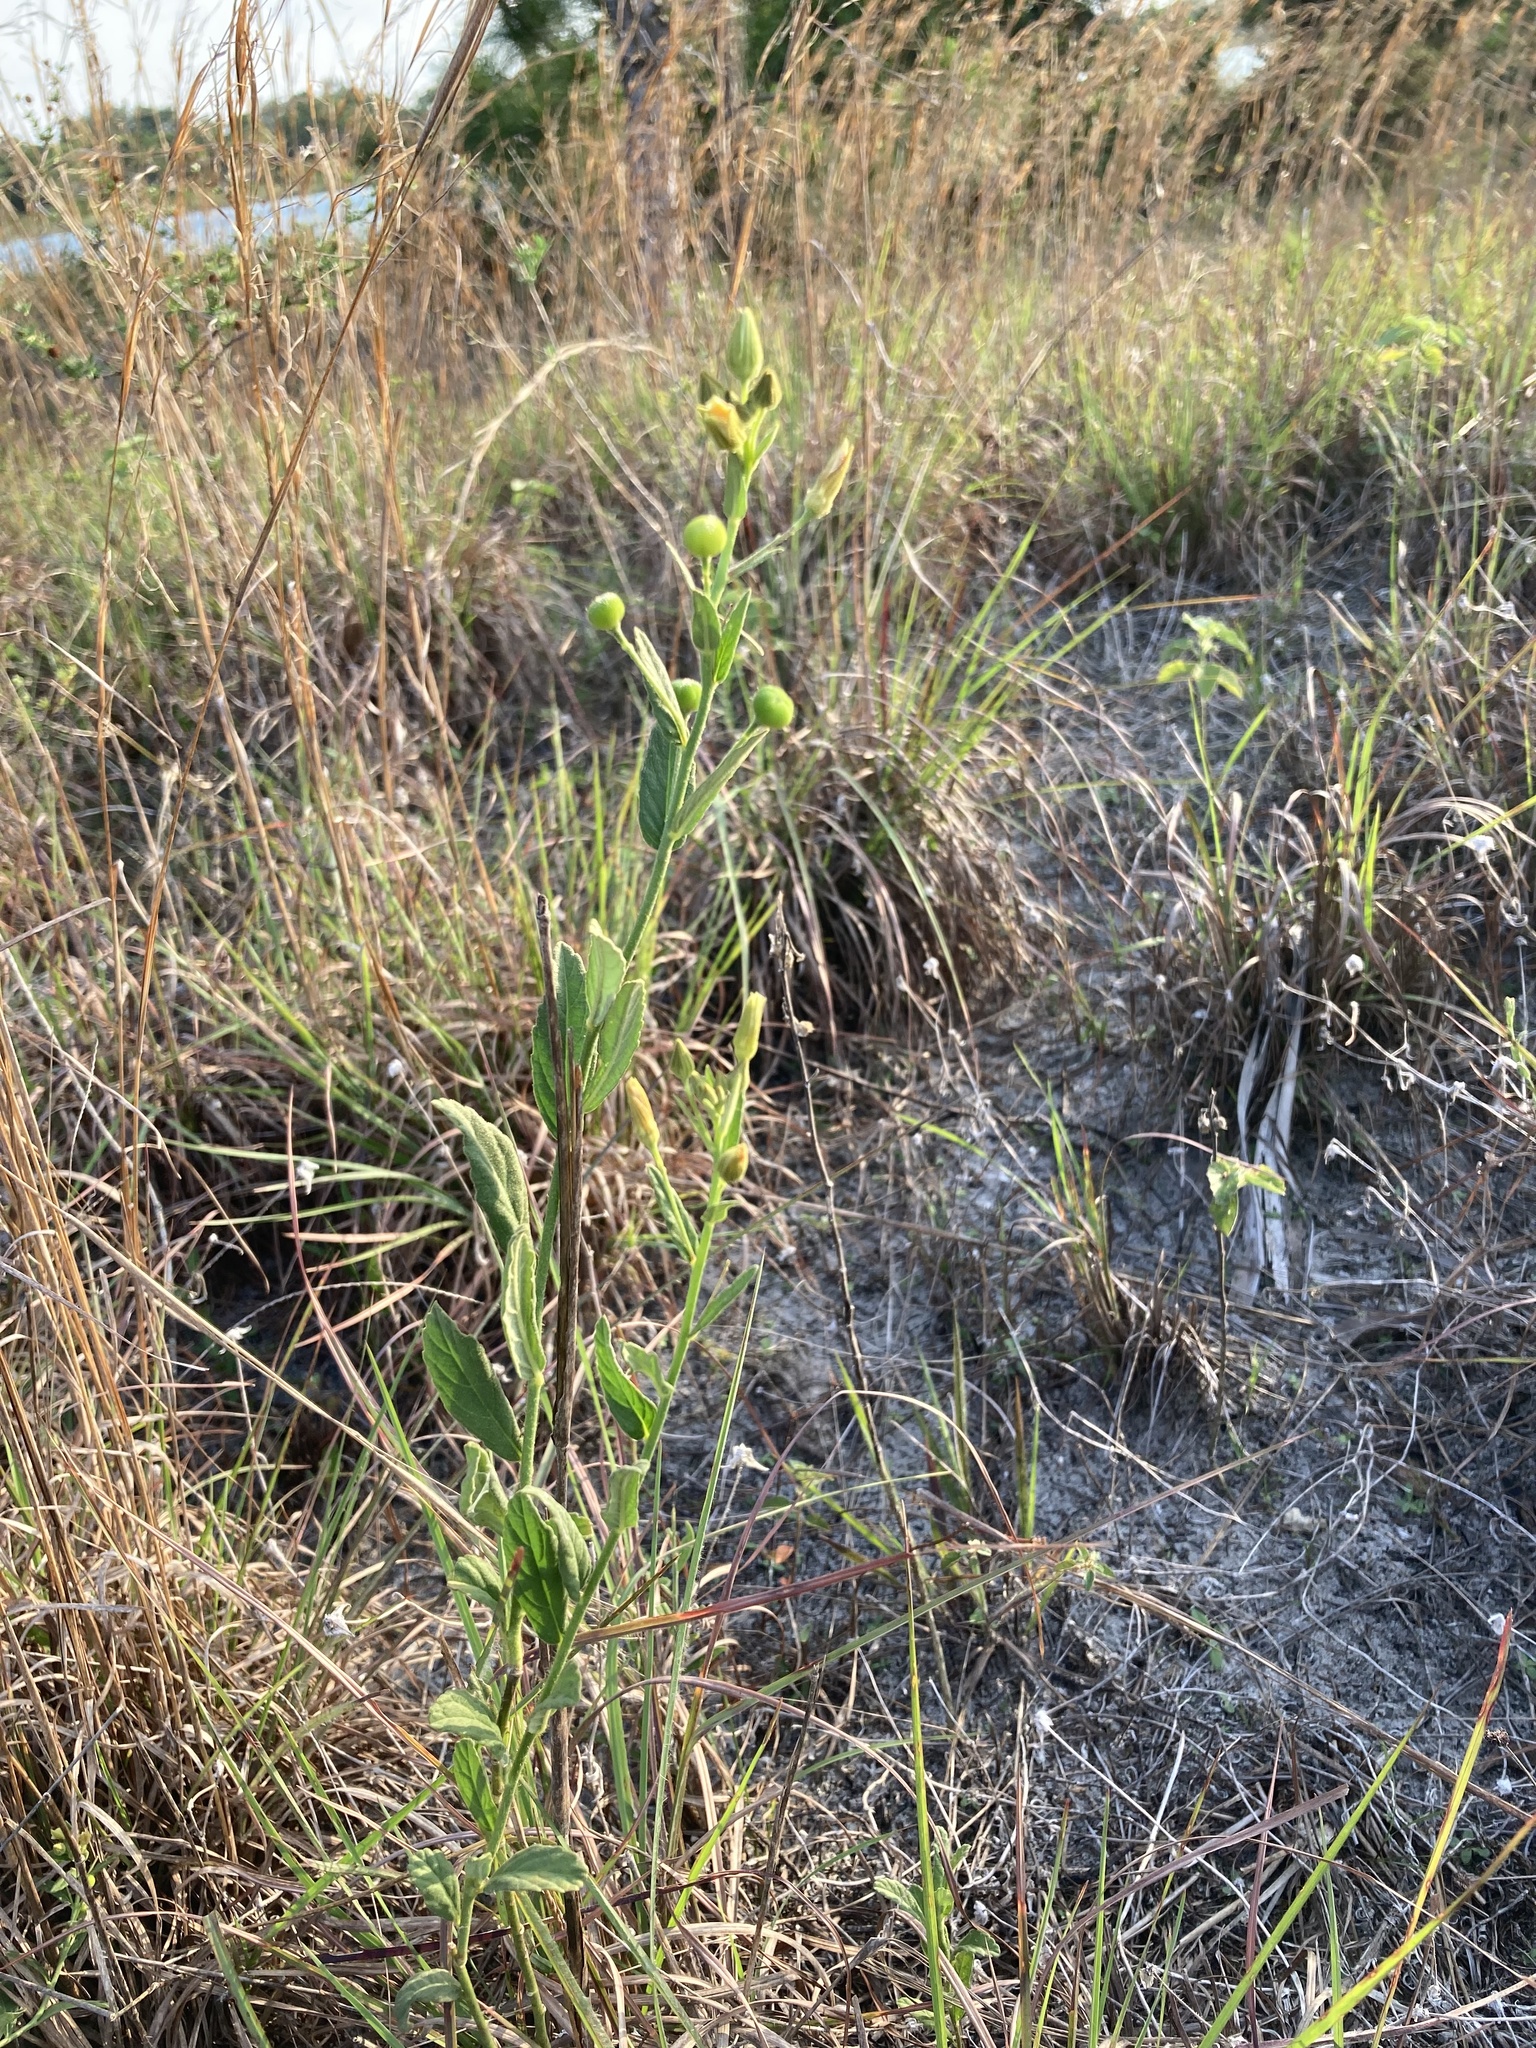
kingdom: Plantae
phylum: Tracheophyta
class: Magnoliopsida
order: Malpighiales
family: Turneraceae
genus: Piriqueta
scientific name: Piriqueta cistoides
